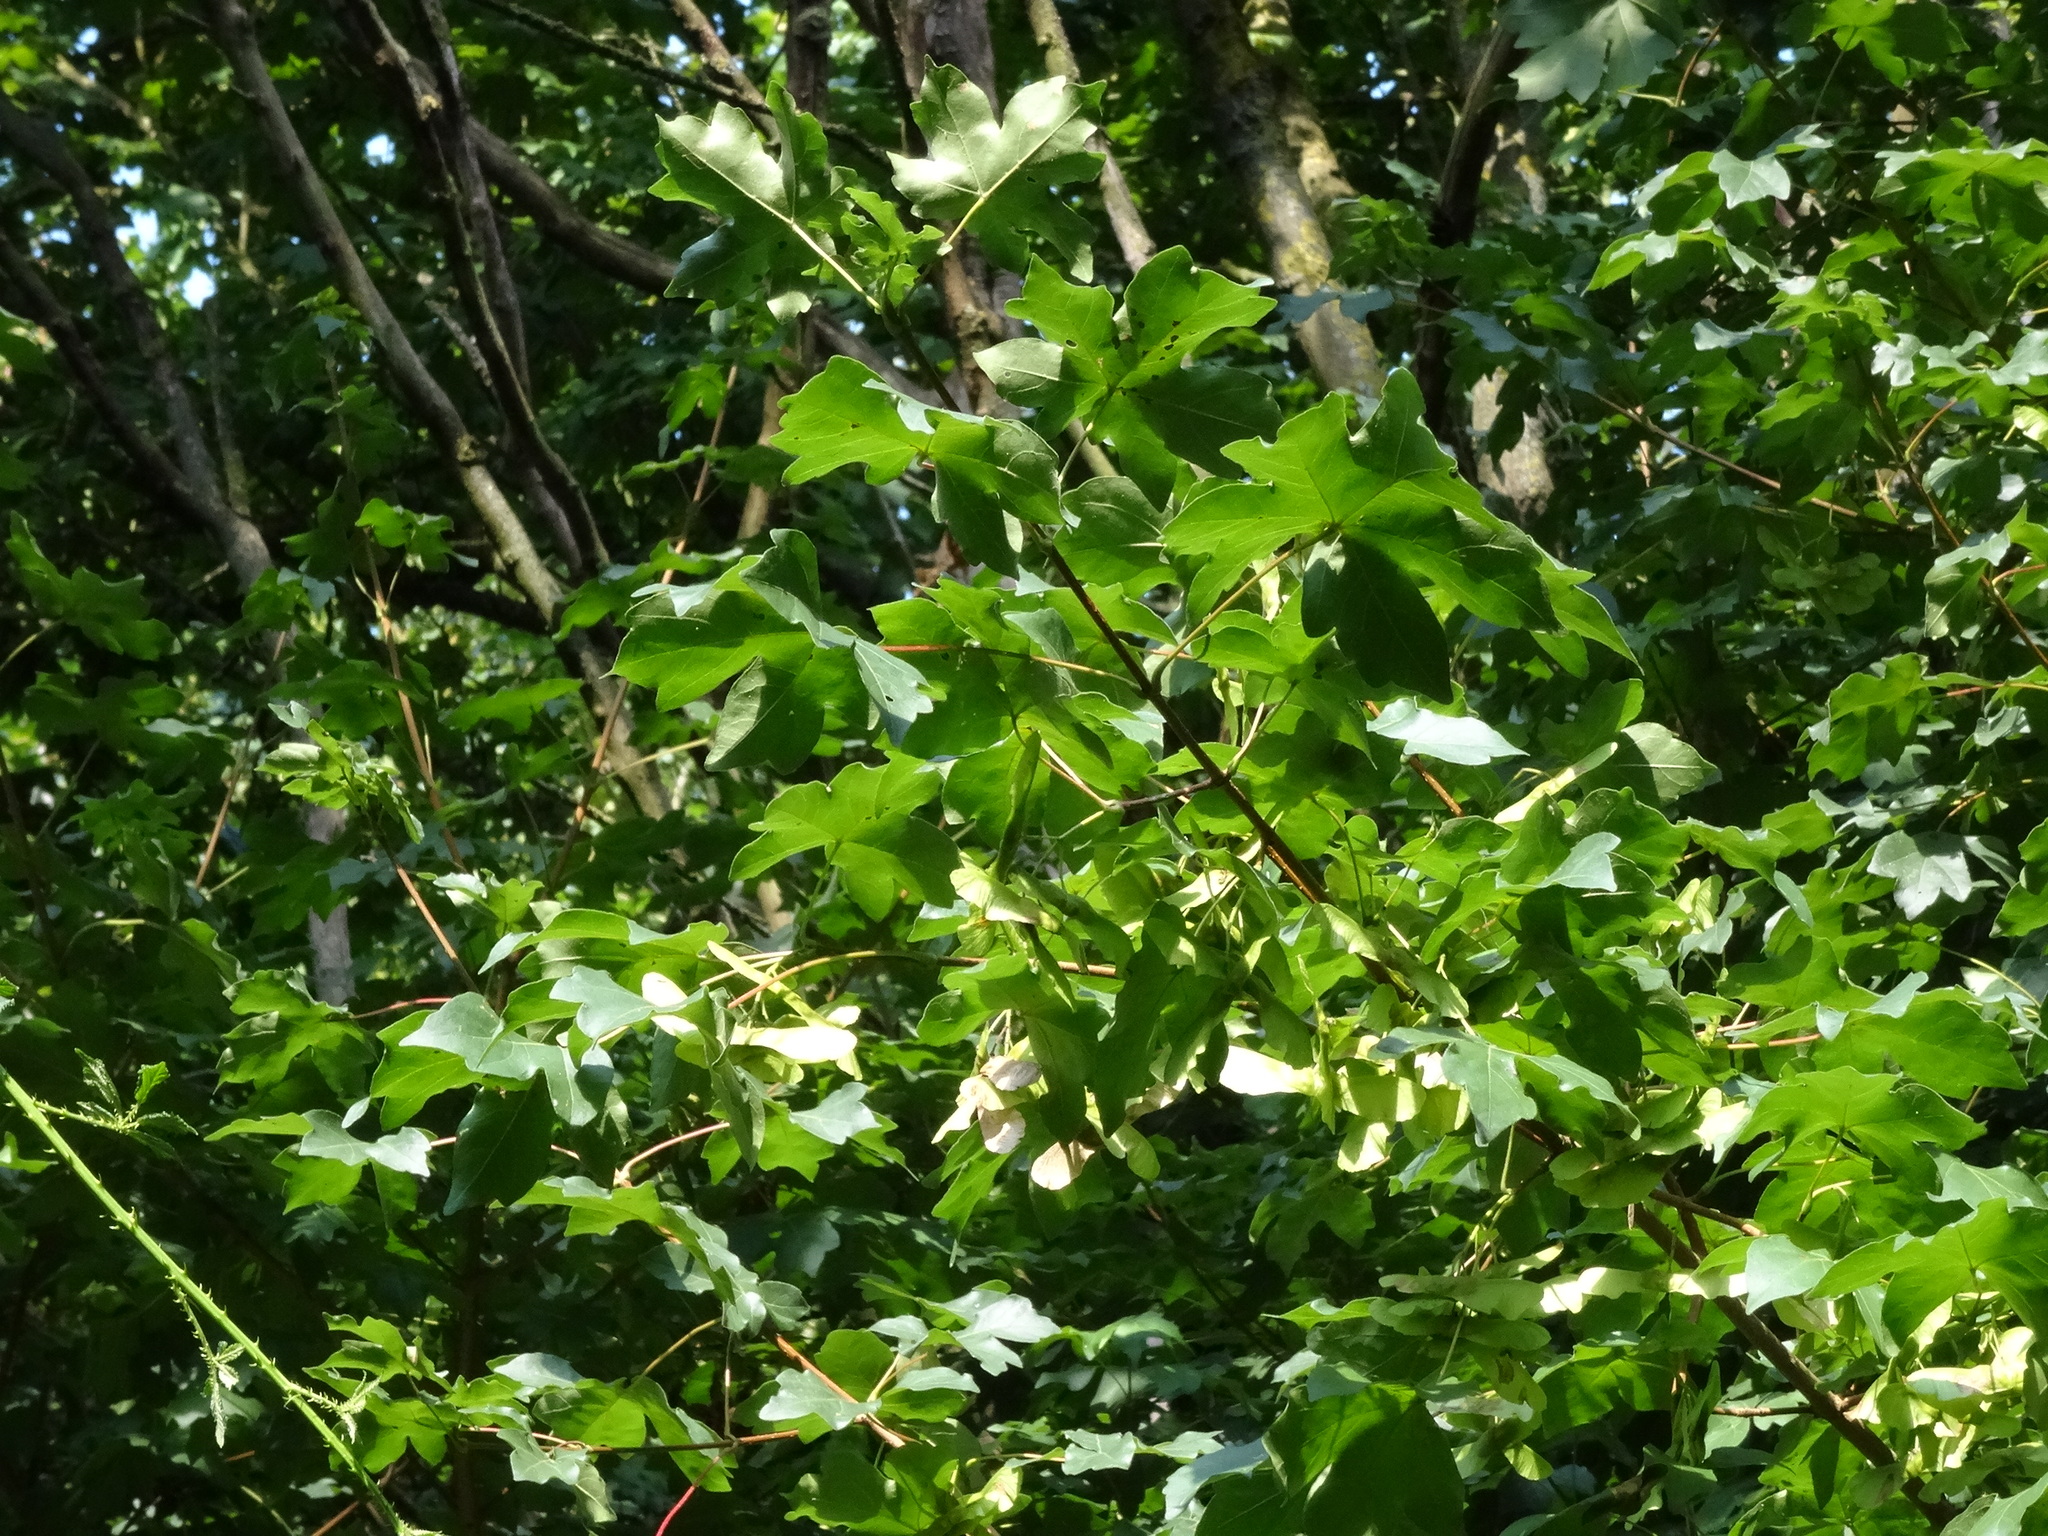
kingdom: Plantae
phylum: Tracheophyta
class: Magnoliopsida
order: Sapindales
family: Sapindaceae
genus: Acer
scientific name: Acer campestre
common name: Field maple
